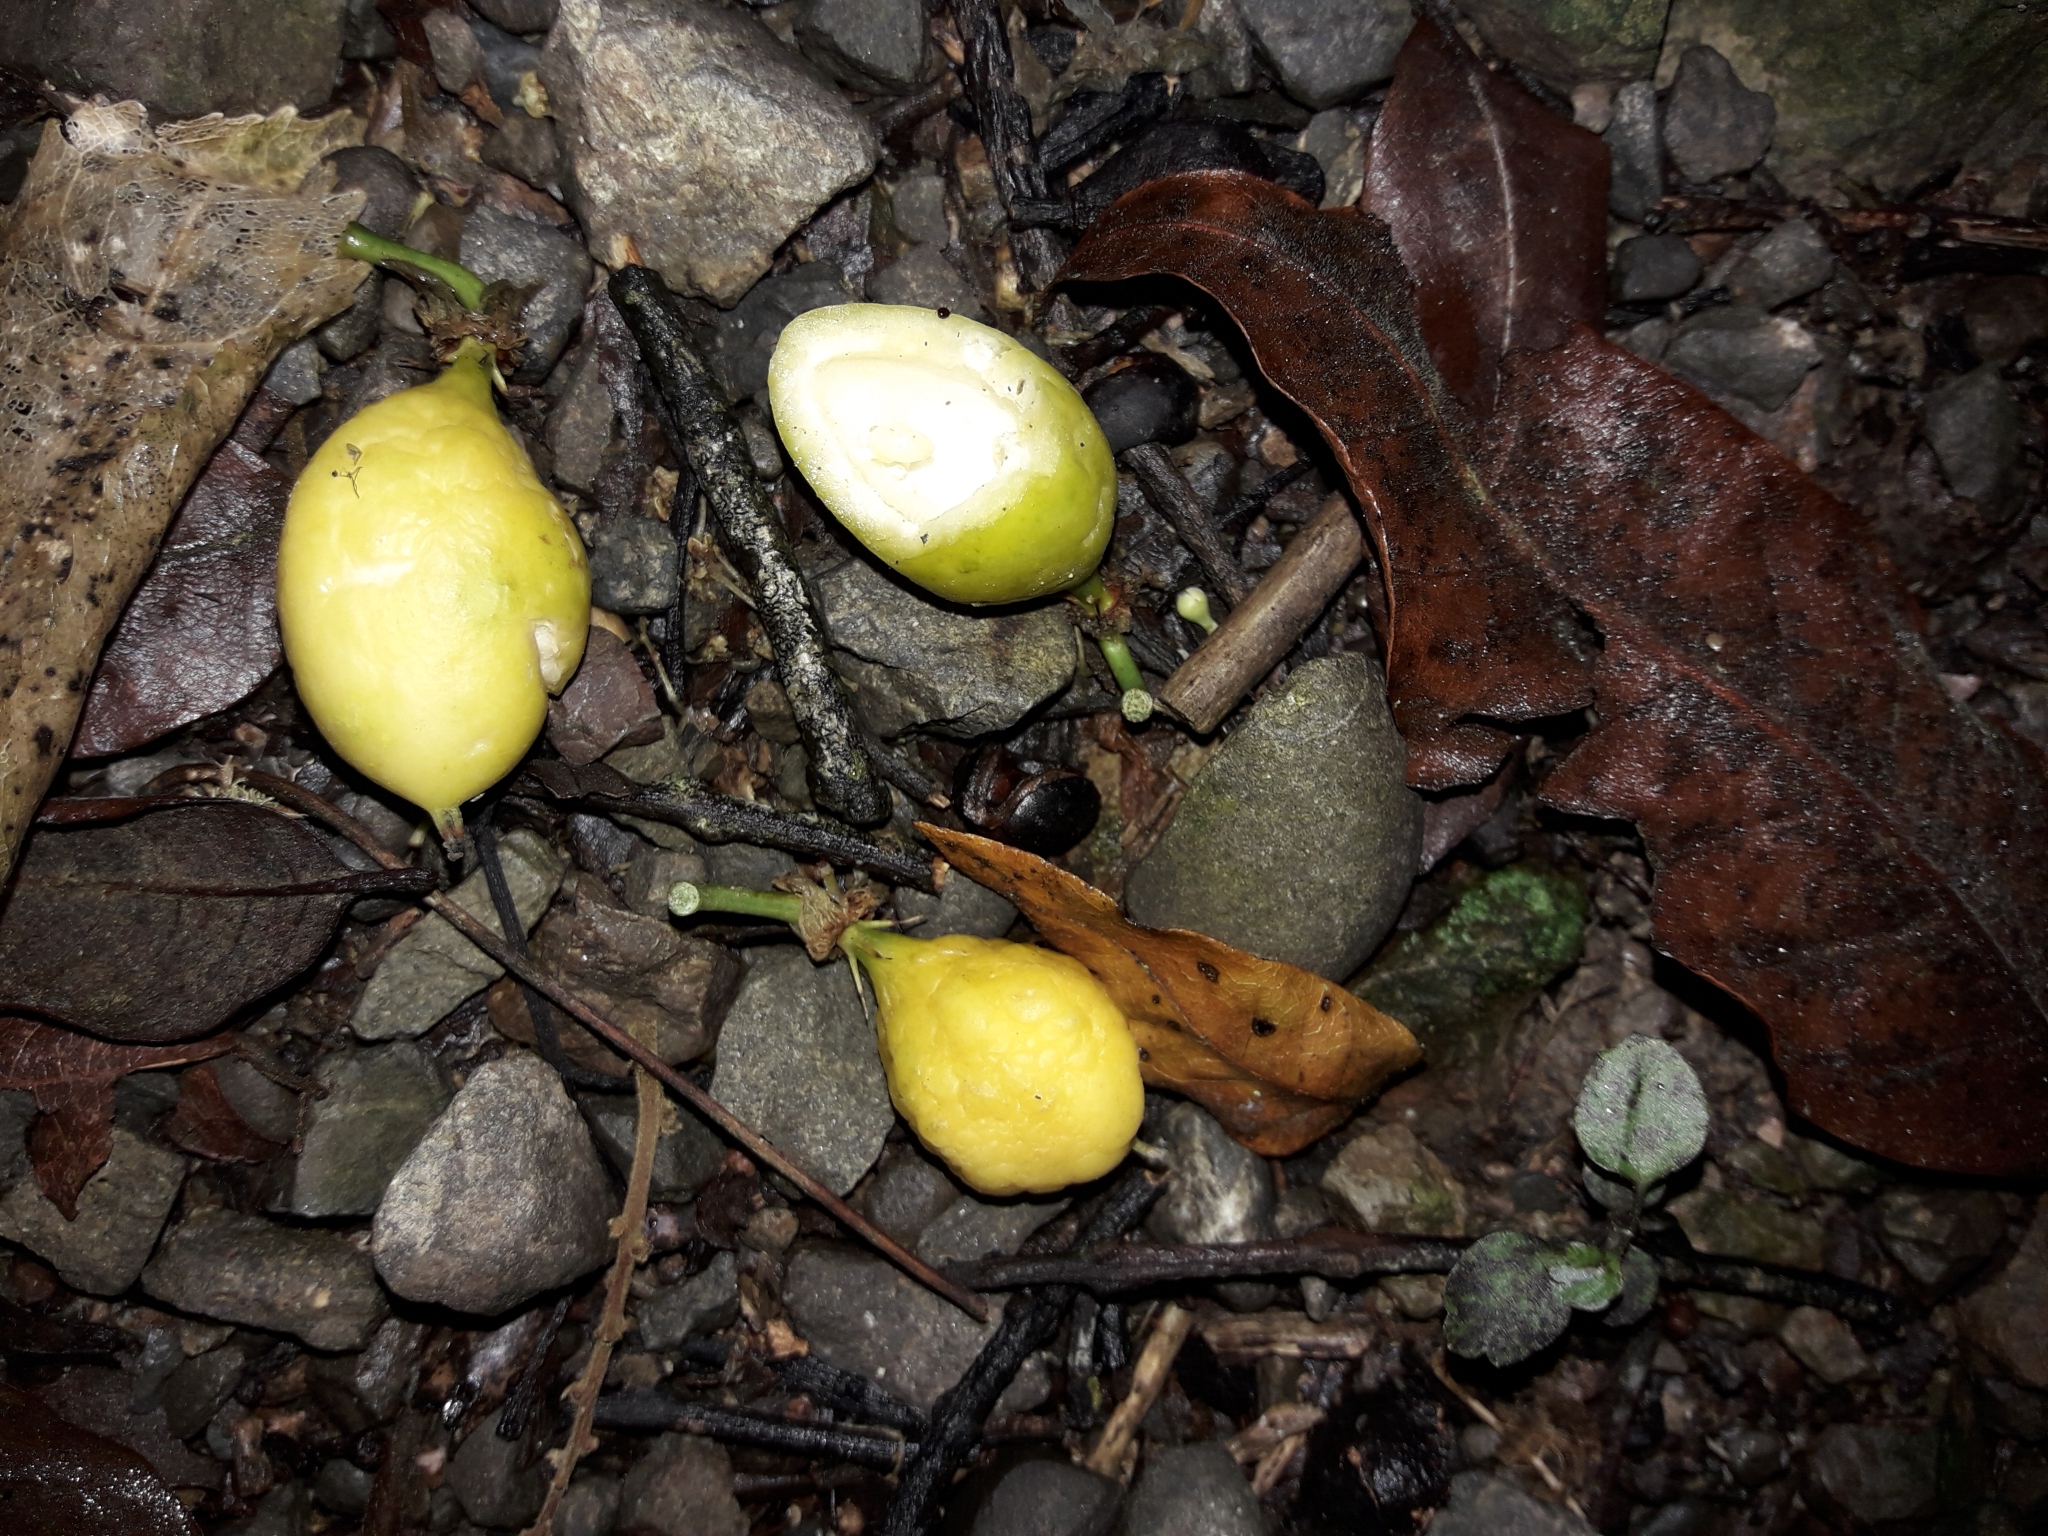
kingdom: Plantae
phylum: Tracheophyta
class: Magnoliopsida
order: Malpighiales
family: Passifloraceae
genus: Passiflora
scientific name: Passiflora tetrandra
